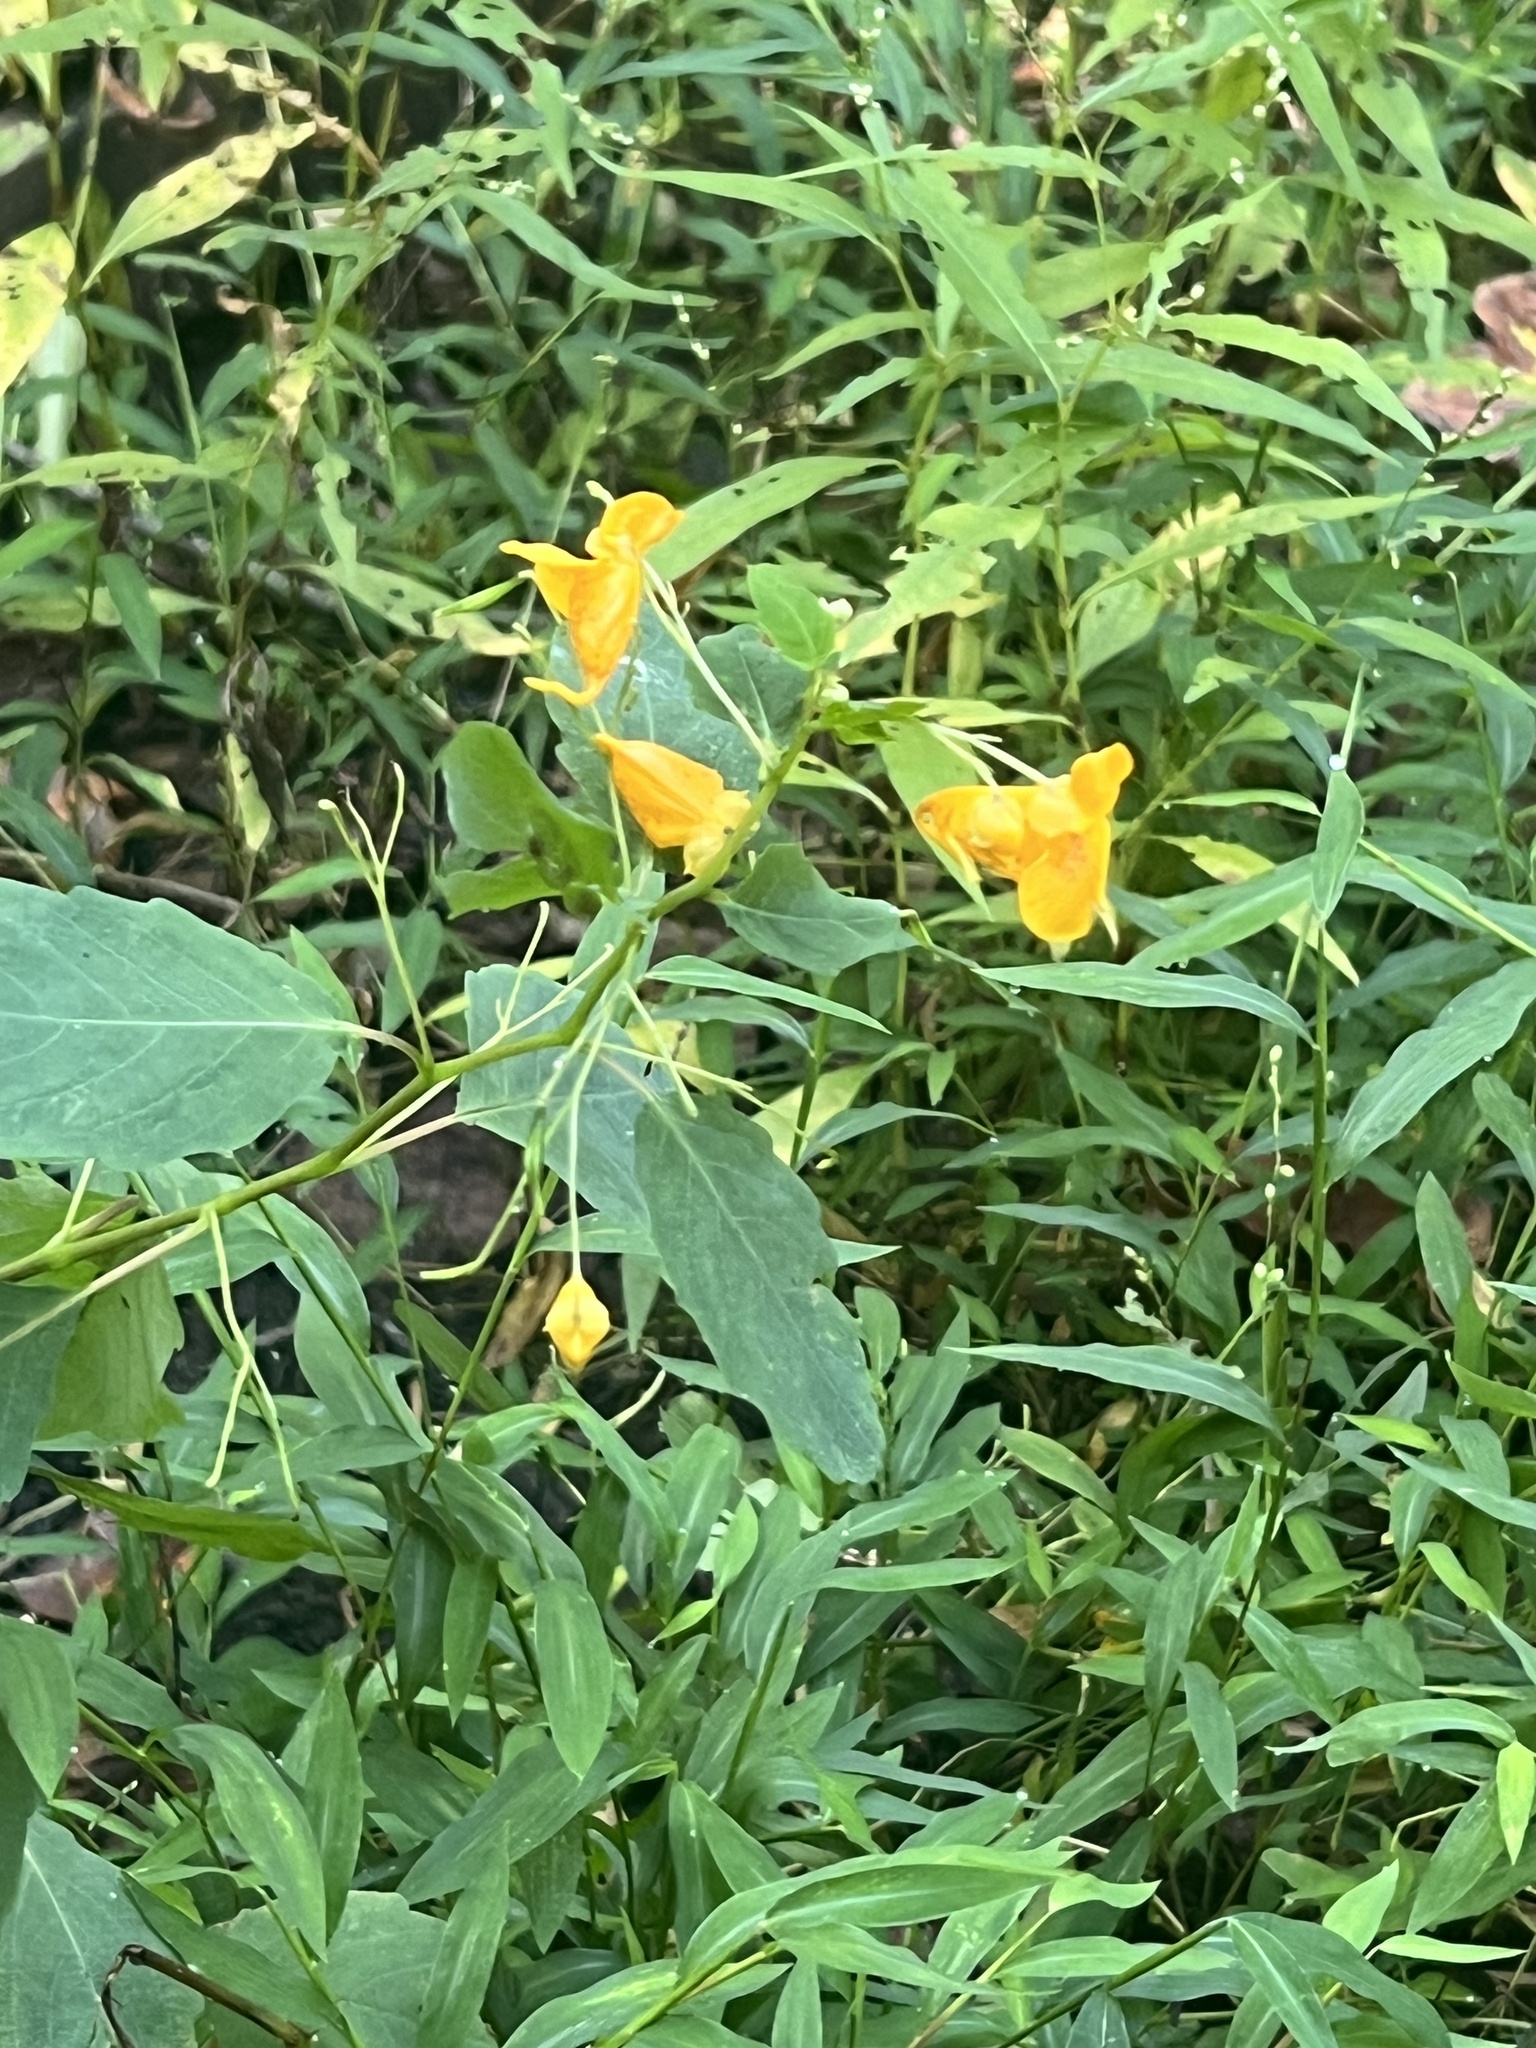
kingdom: Plantae
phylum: Tracheophyta
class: Magnoliopsida
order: Ericales
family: Balsaminaceae
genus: Impatiens
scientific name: Impatiens capensis
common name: Orange balsam
